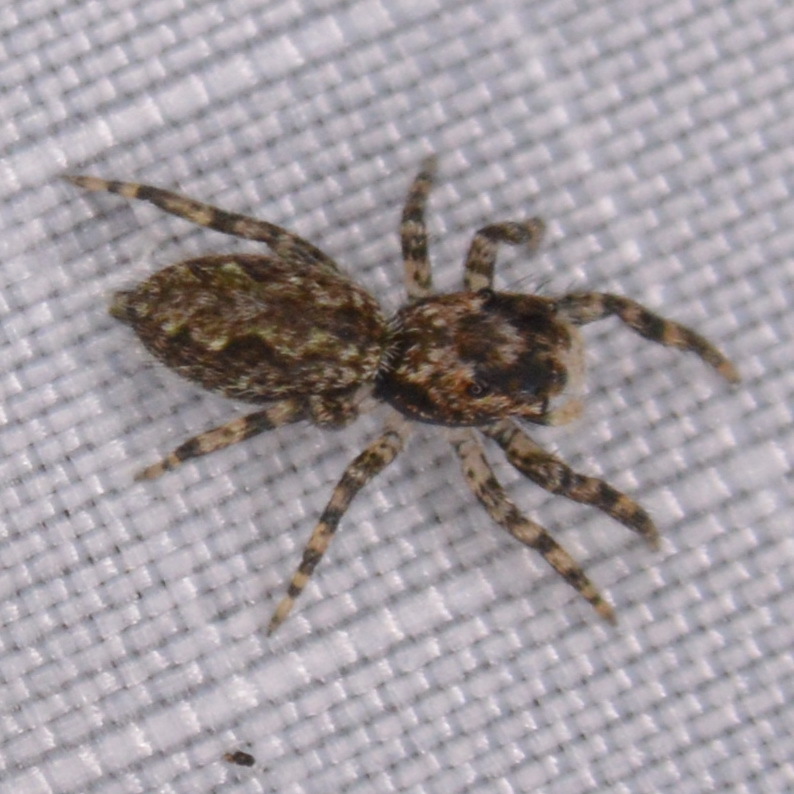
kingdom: Animalia
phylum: Arthropoda
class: Arachnida
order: Araneae
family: Salticidae
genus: Platycryptus
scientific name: Platycryptus undatus
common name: Tan jumping spider
